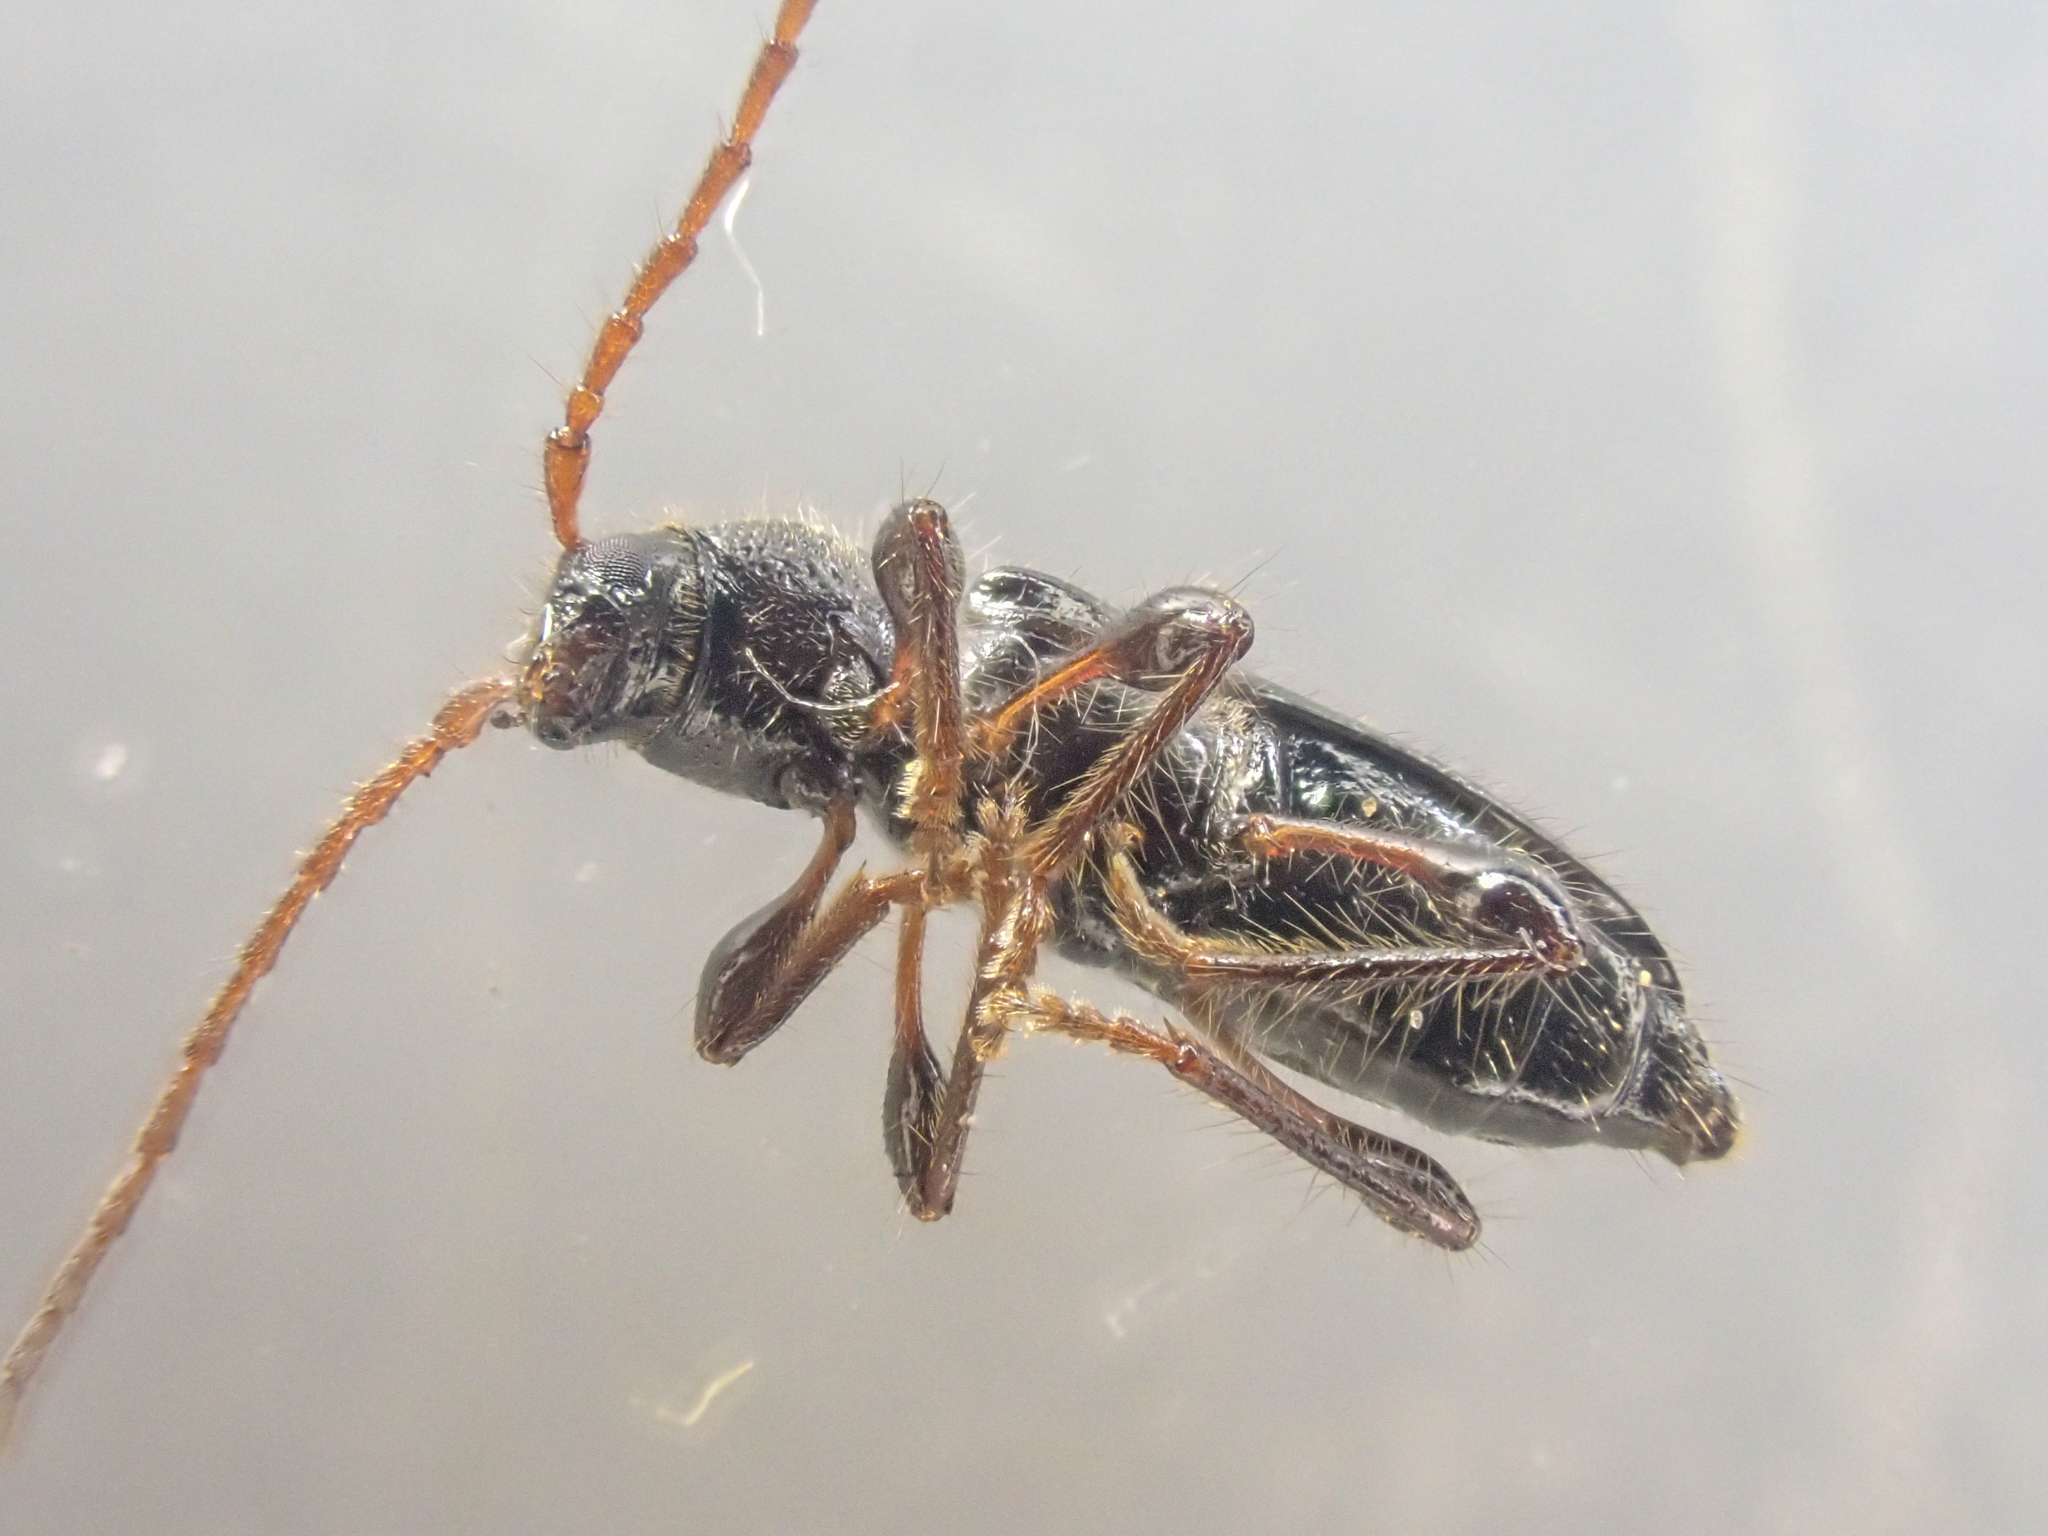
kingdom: Animalia
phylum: Arthropoda
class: Insecta
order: Coleoptera
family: Cerambycidae
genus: Phymatodes
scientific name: Phymatodes nitidus
